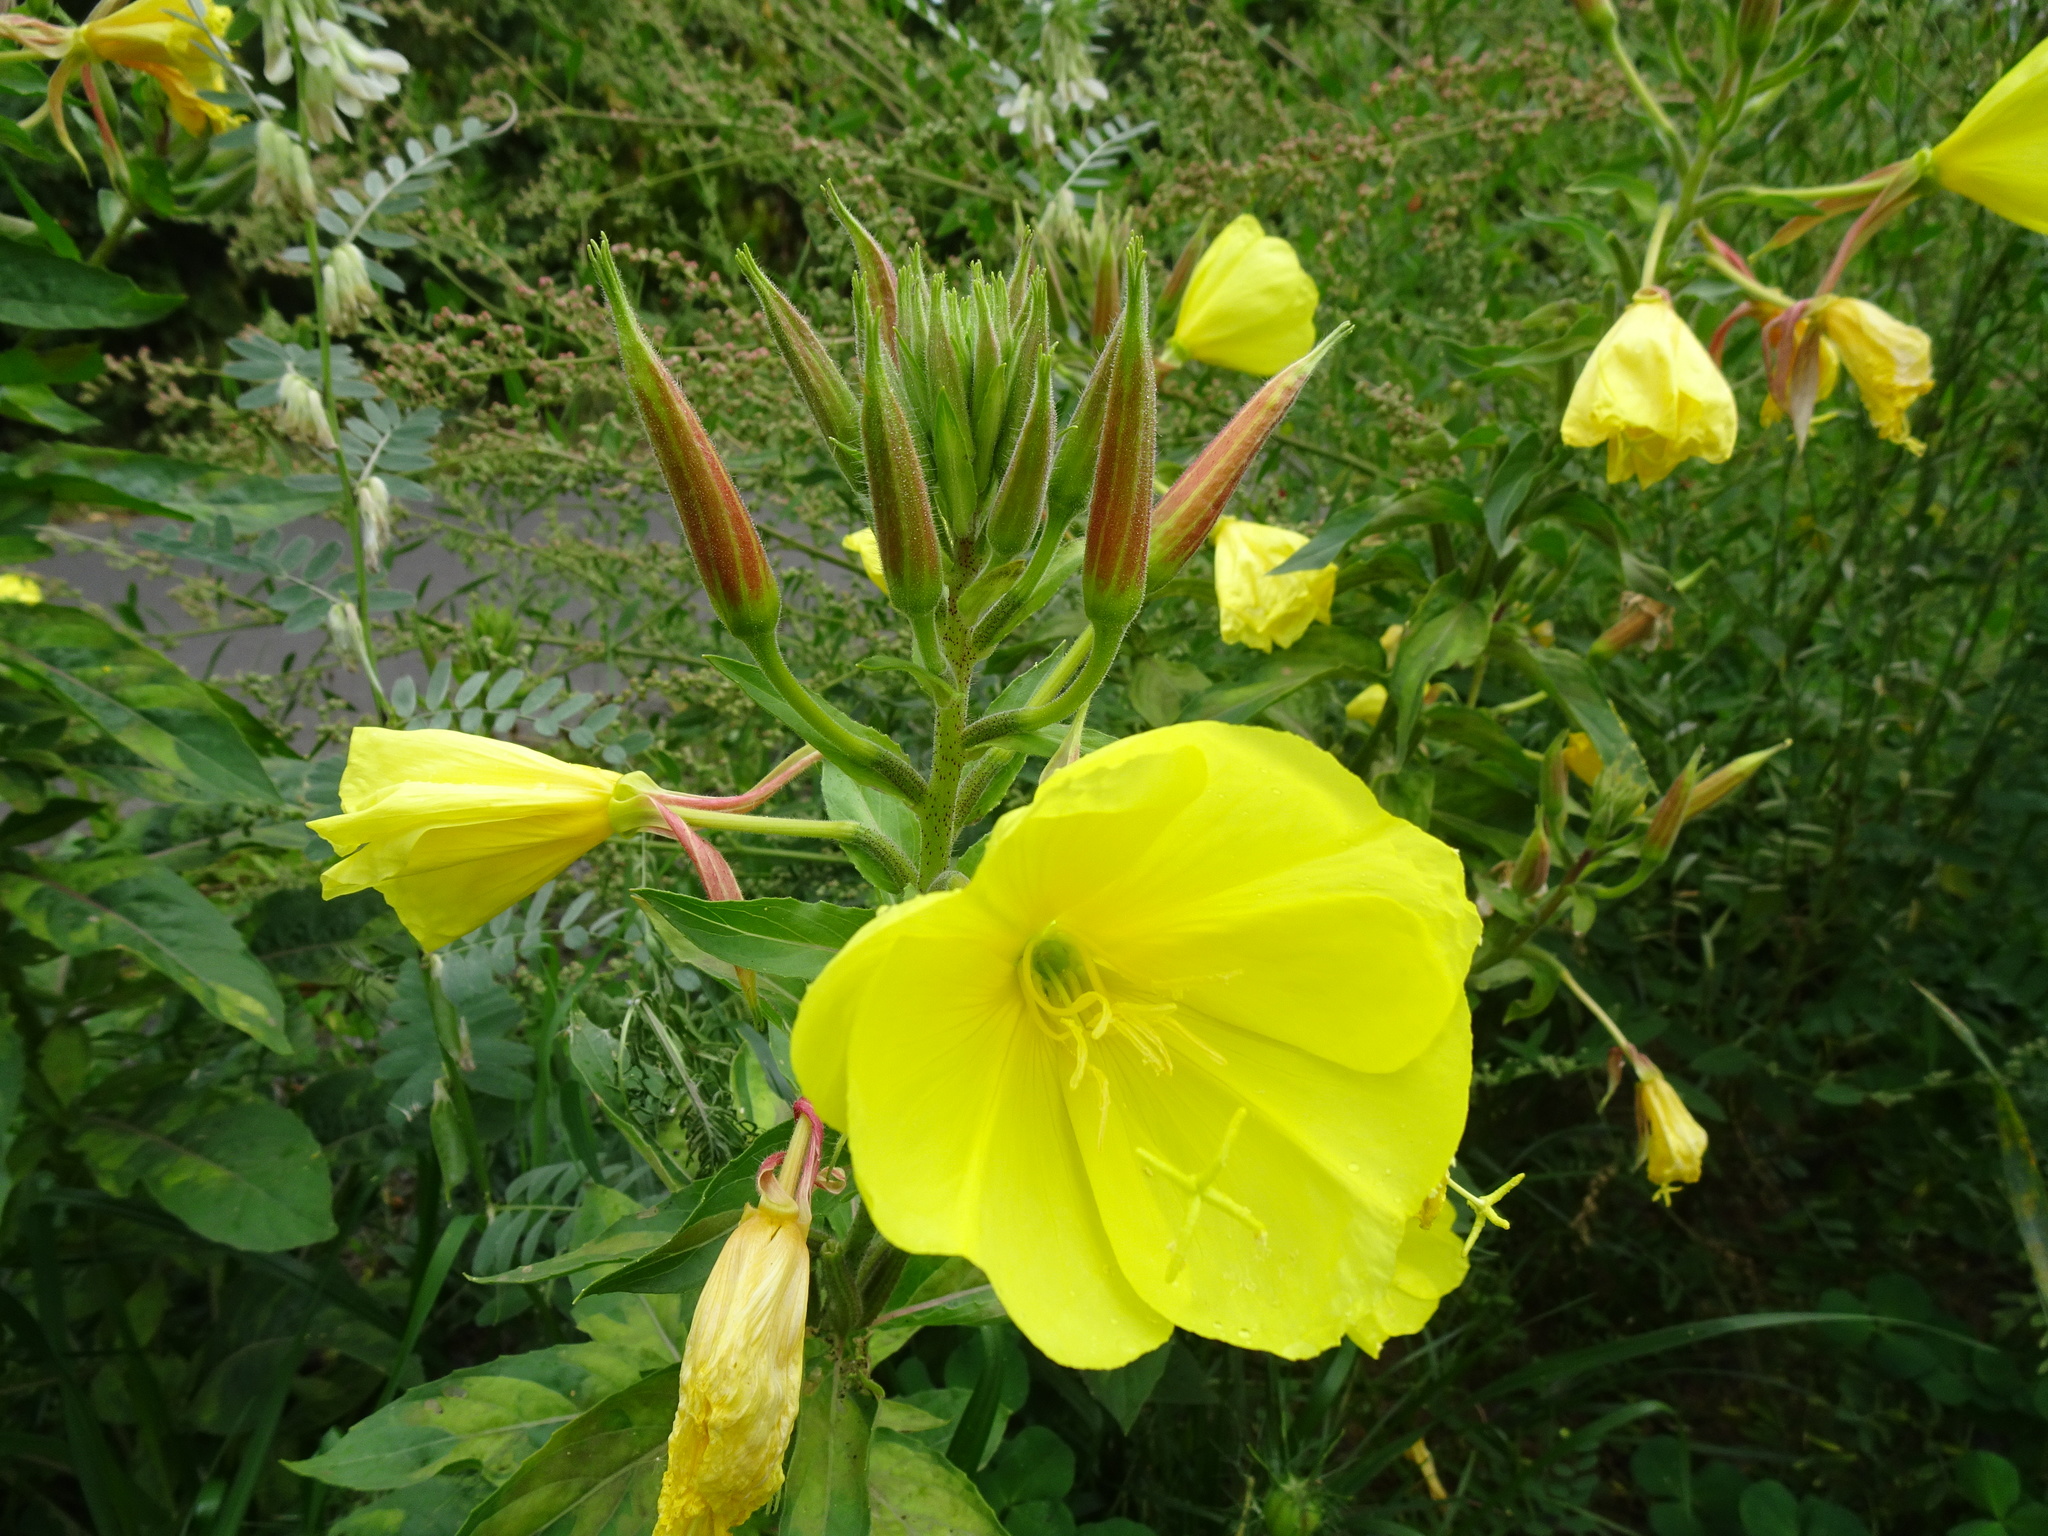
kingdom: Plantae
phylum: Tracheophyta
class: Magnoliopsida
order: Myrtales
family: Onagraceae
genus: Oenothera
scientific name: Oenothera glazioviana
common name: Large-flowered evening-primrose
